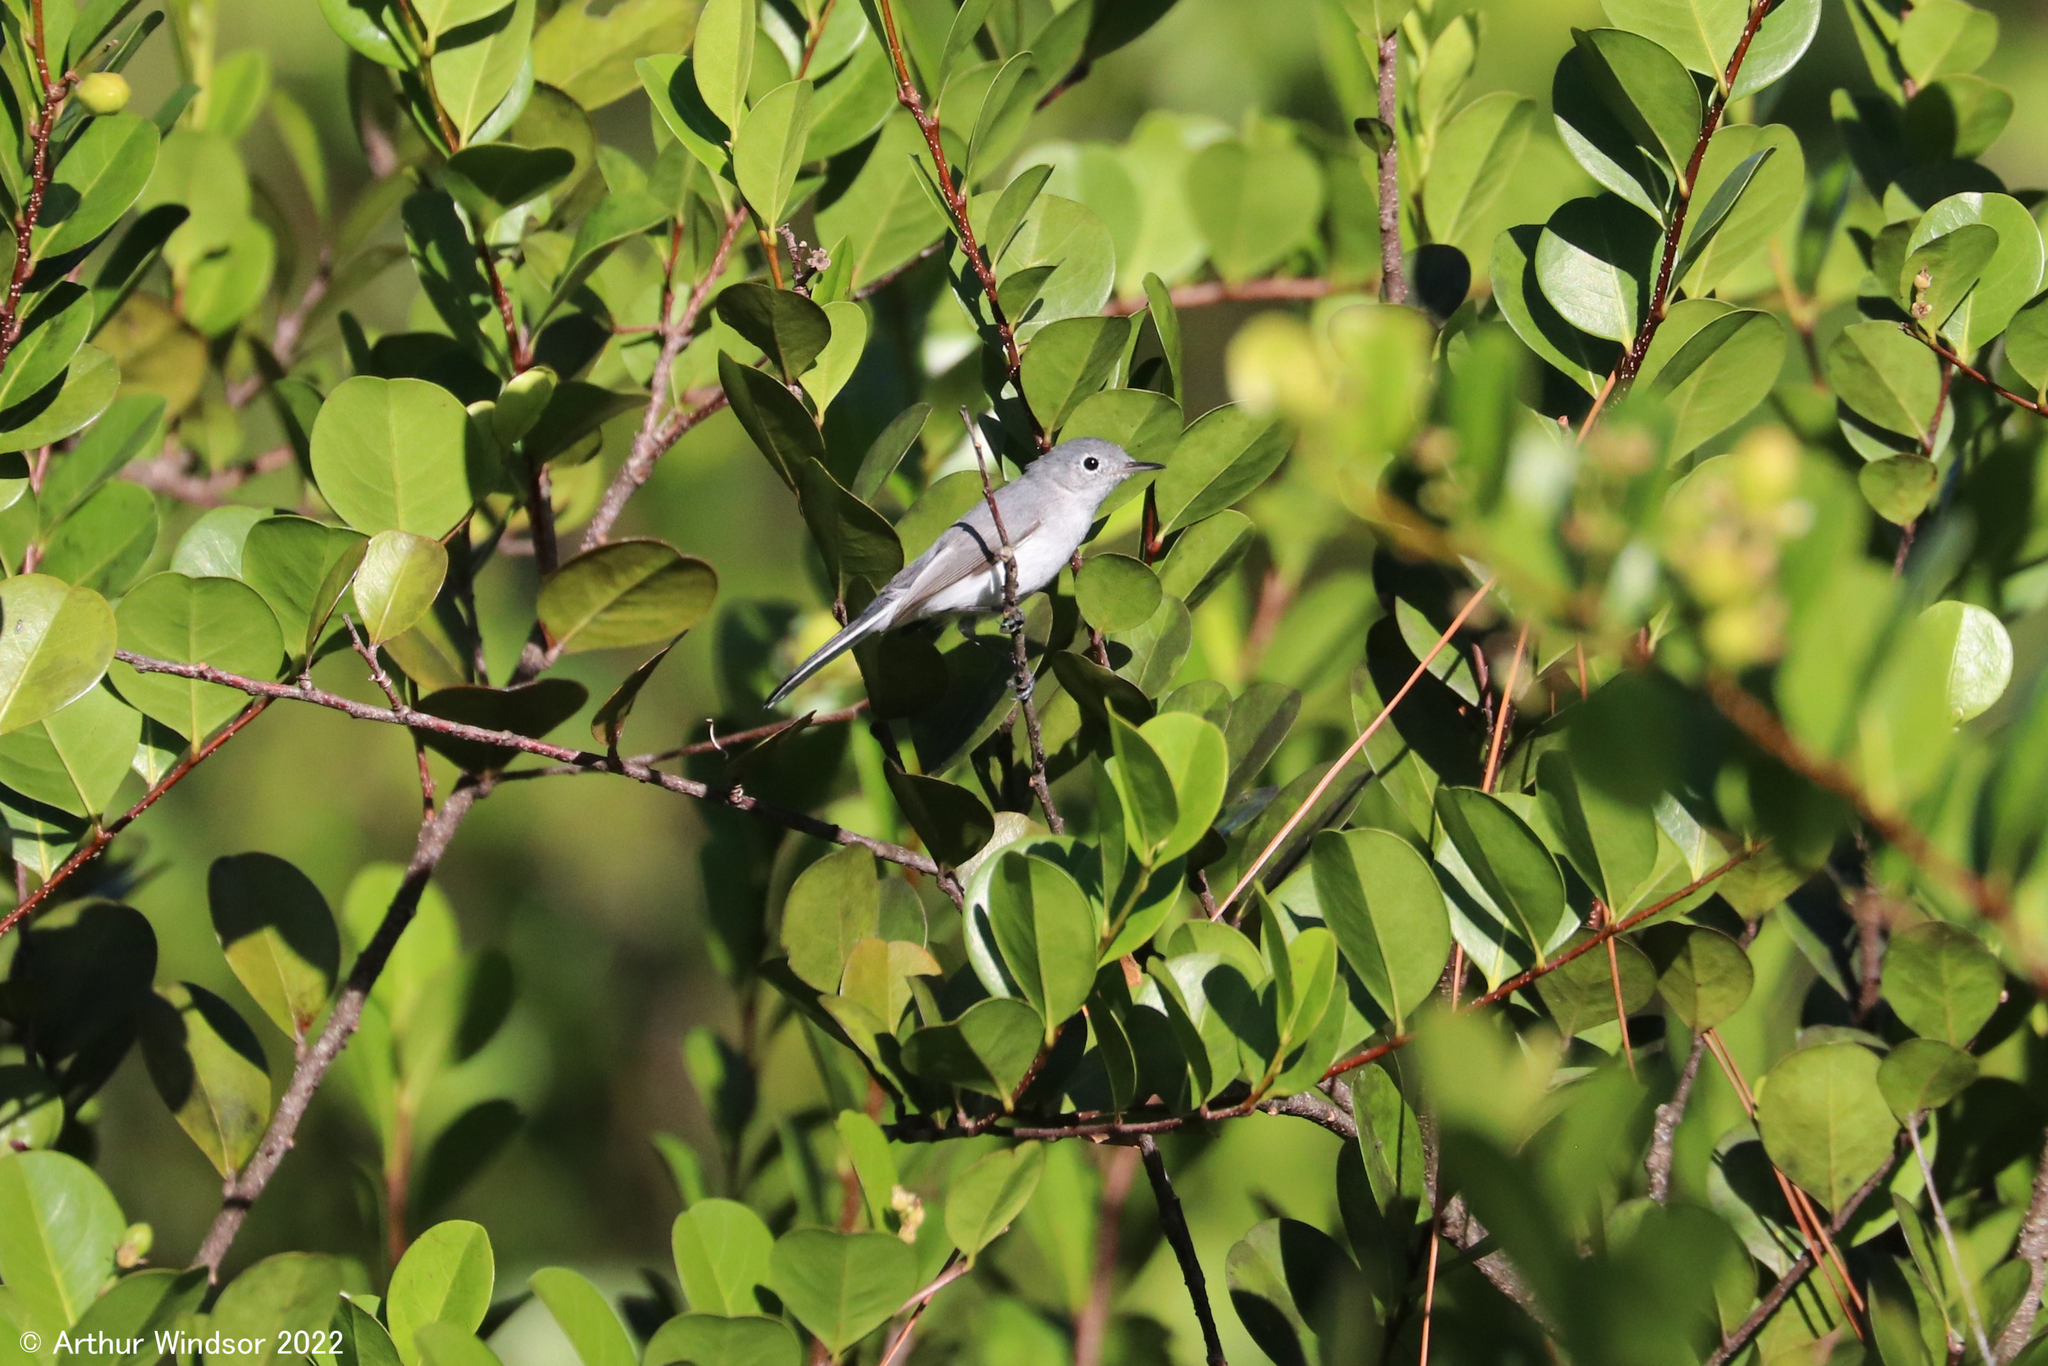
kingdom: Animalia
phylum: Chordata
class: Aves
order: Passeriformes
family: Polioptilidae
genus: Polioptila
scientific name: Polioptila caerulea
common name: Blue-gray gnatcatcher
